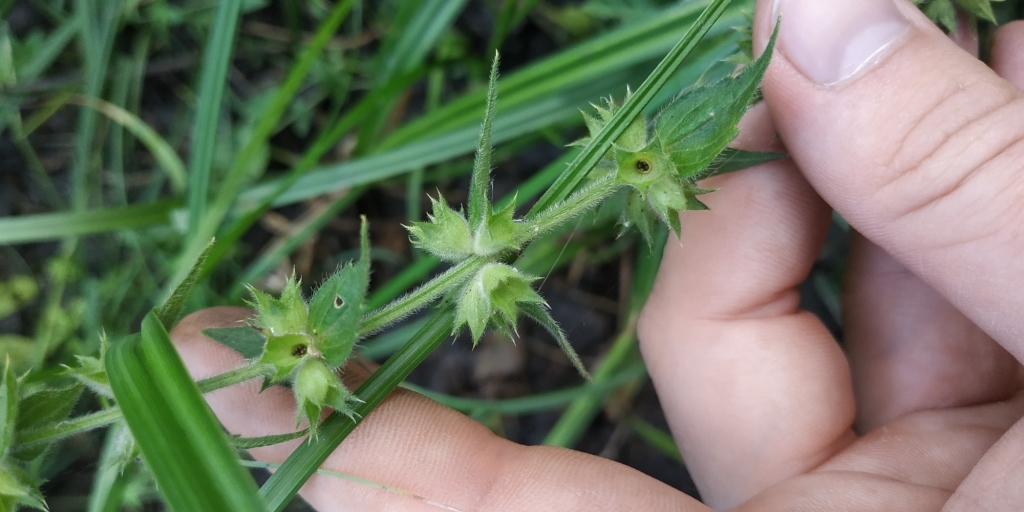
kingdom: Plantae
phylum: Tracheophyta
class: Magnoliopsida
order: Lamiales
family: Lamiaceae
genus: Stachys
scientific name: Stachys palustris
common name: Marsh woundwort
